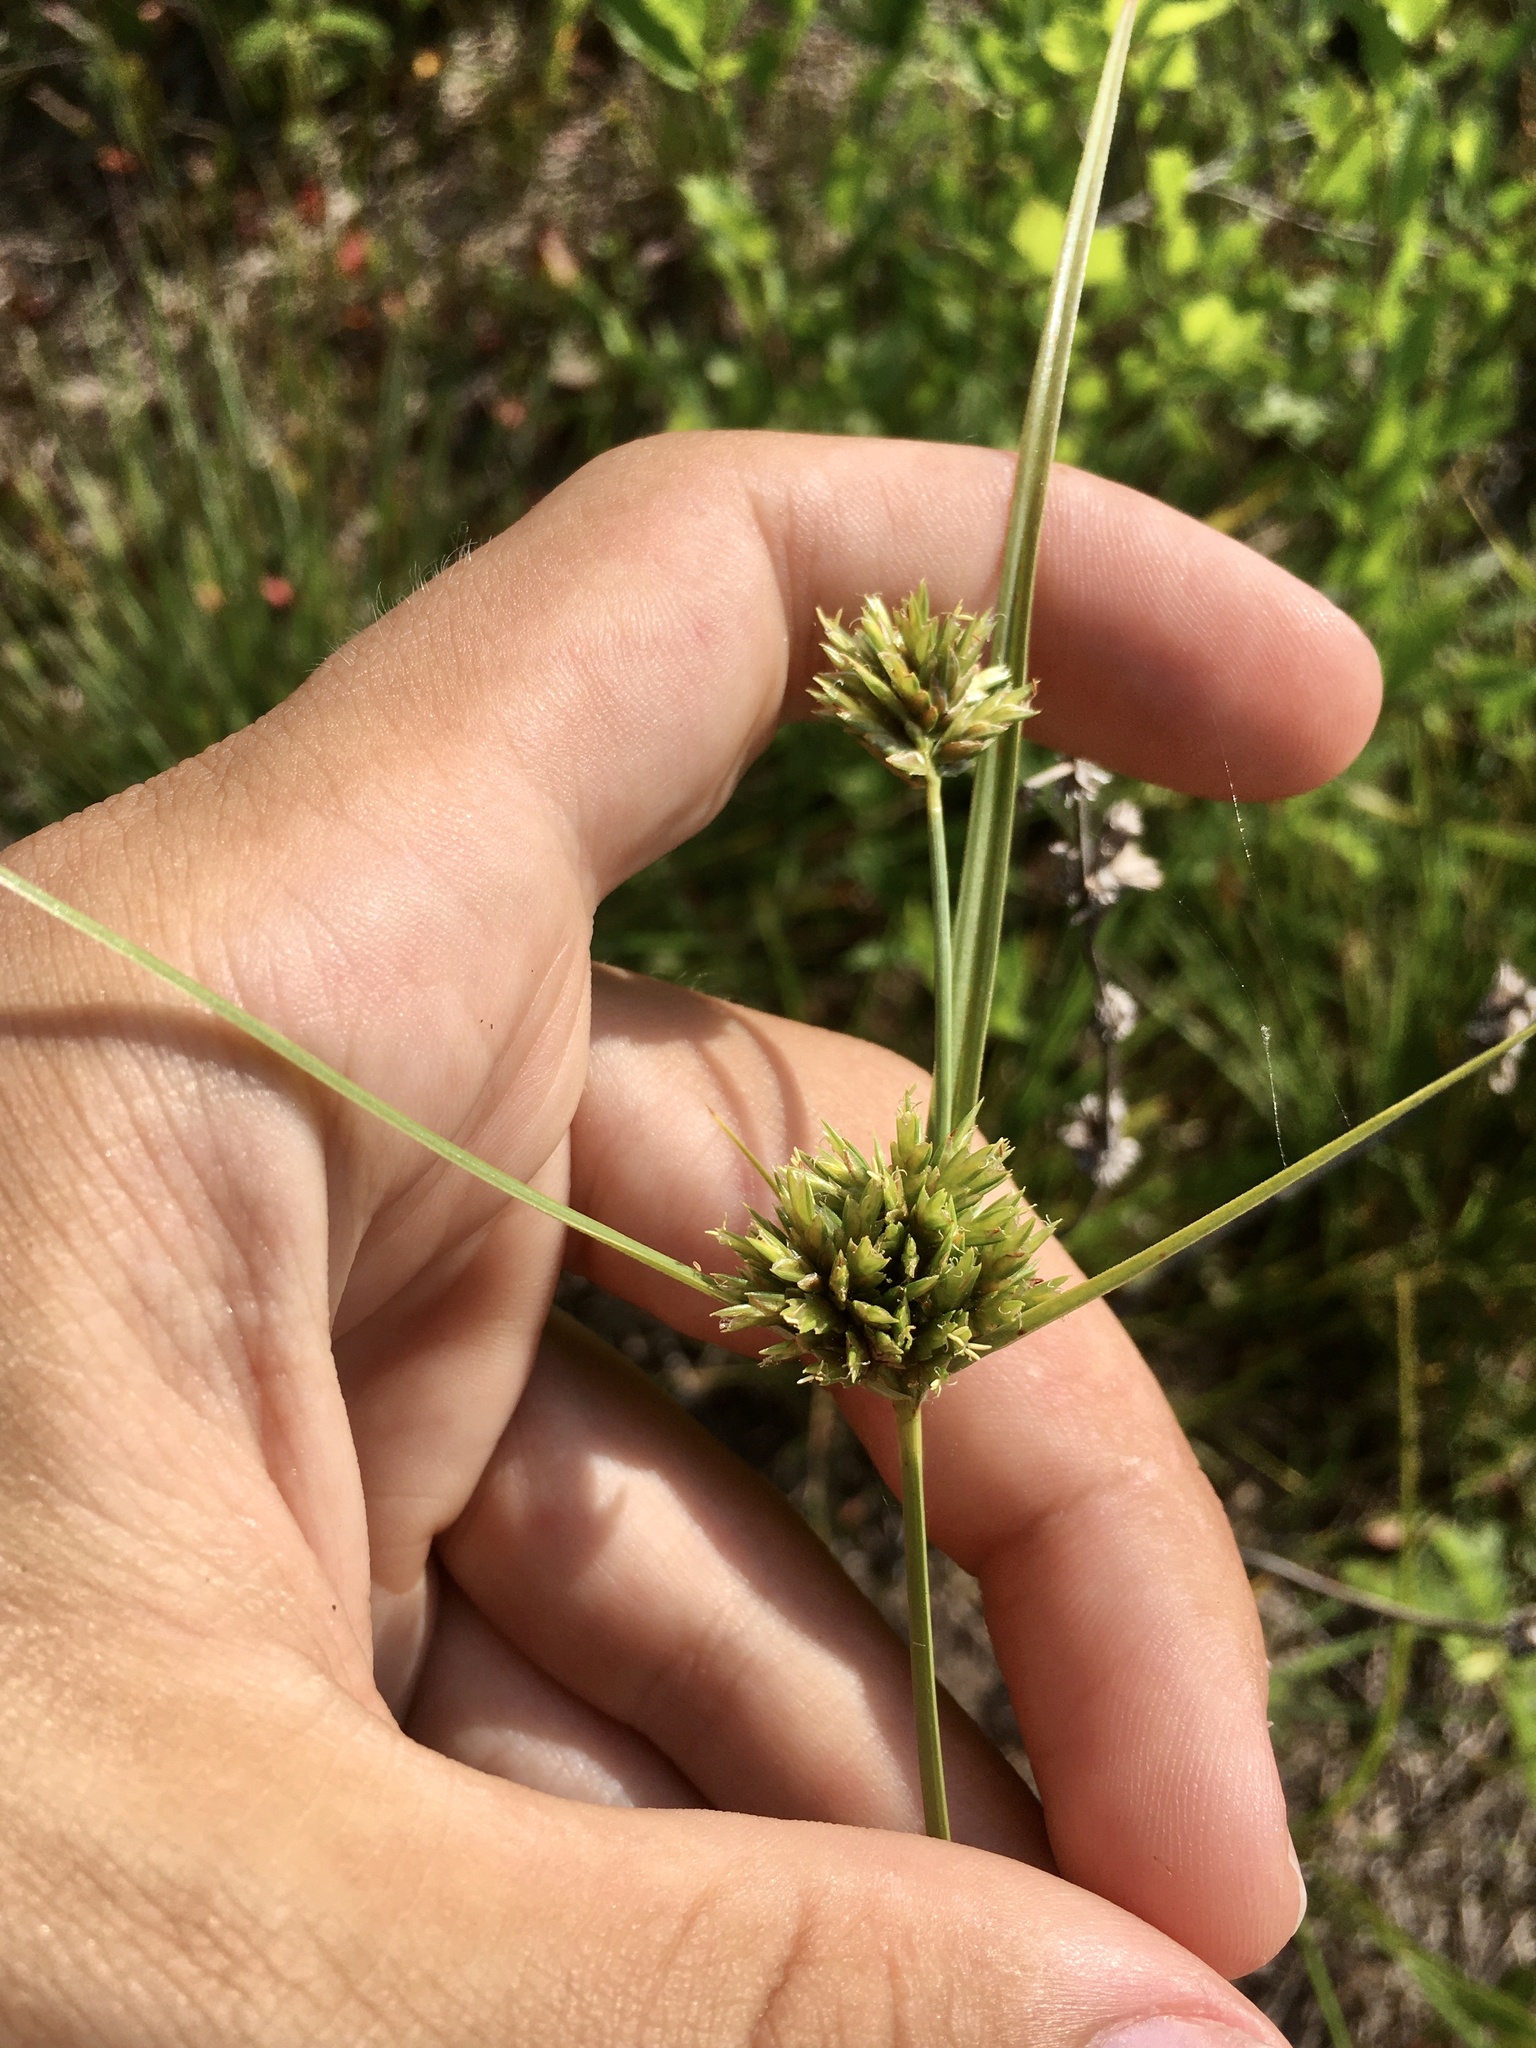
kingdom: Plantae
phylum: Tracheophyta
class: Liliopsida
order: Poales
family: Cyperaceae
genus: Cyperus
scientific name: Cyperus lupulinus
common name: Great plains flatsedge
